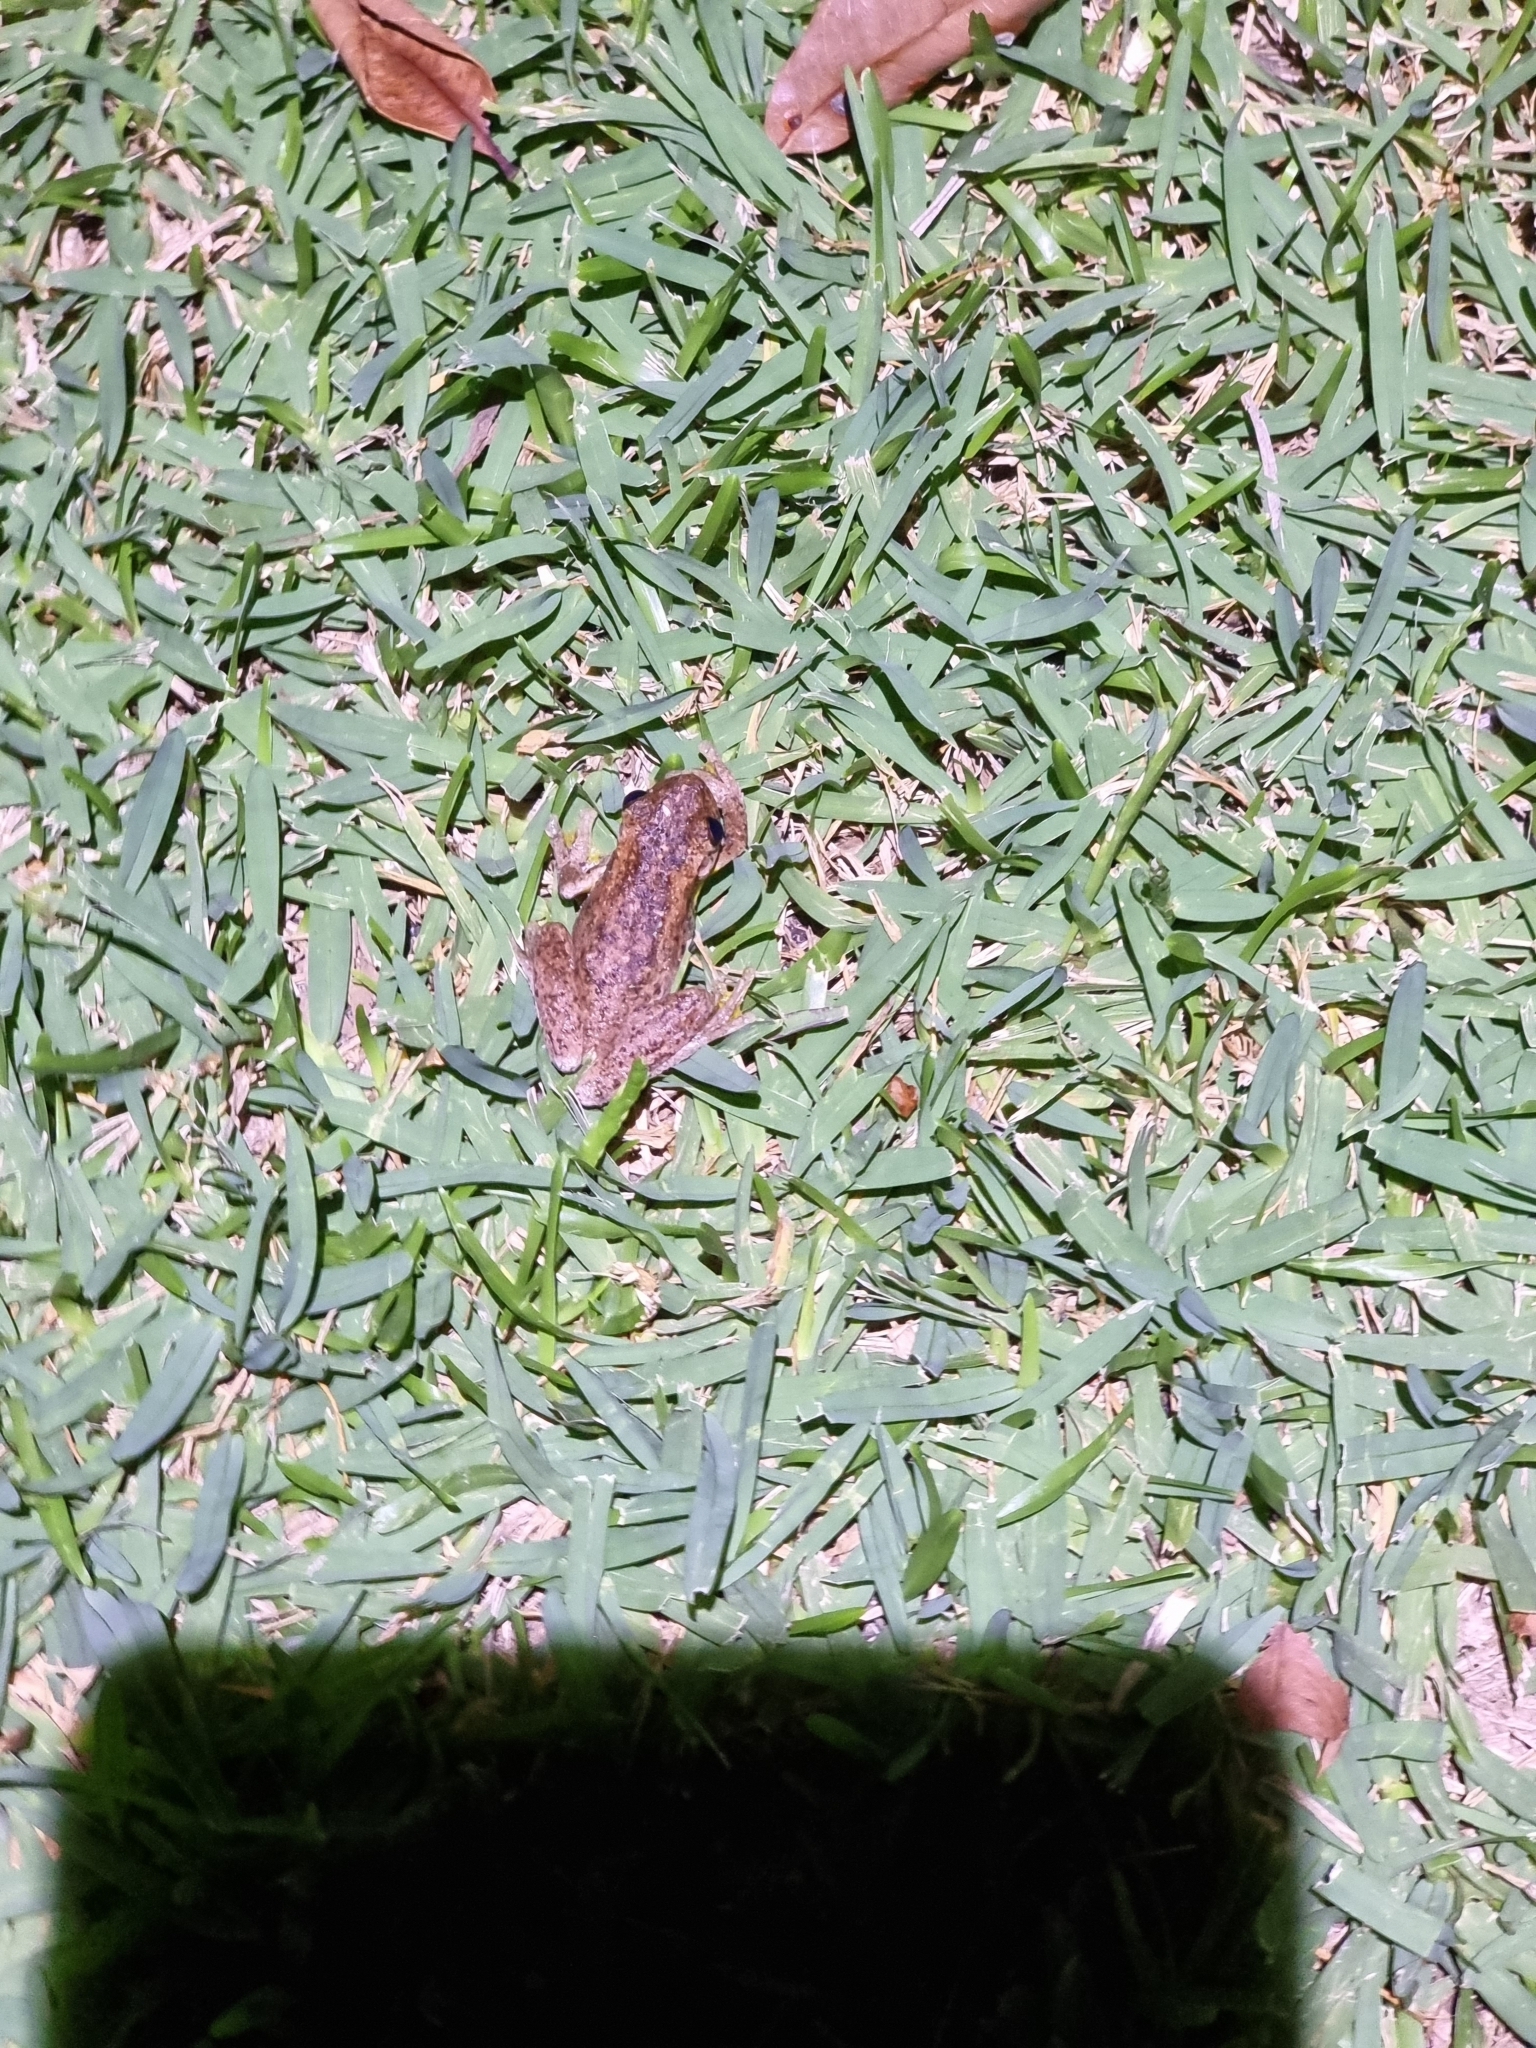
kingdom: Animalia
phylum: Chordata
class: Amphibia
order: Anura
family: Pelodryadidae
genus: Litoria
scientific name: Litoria peronii
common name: Emerald spotted treefrog
